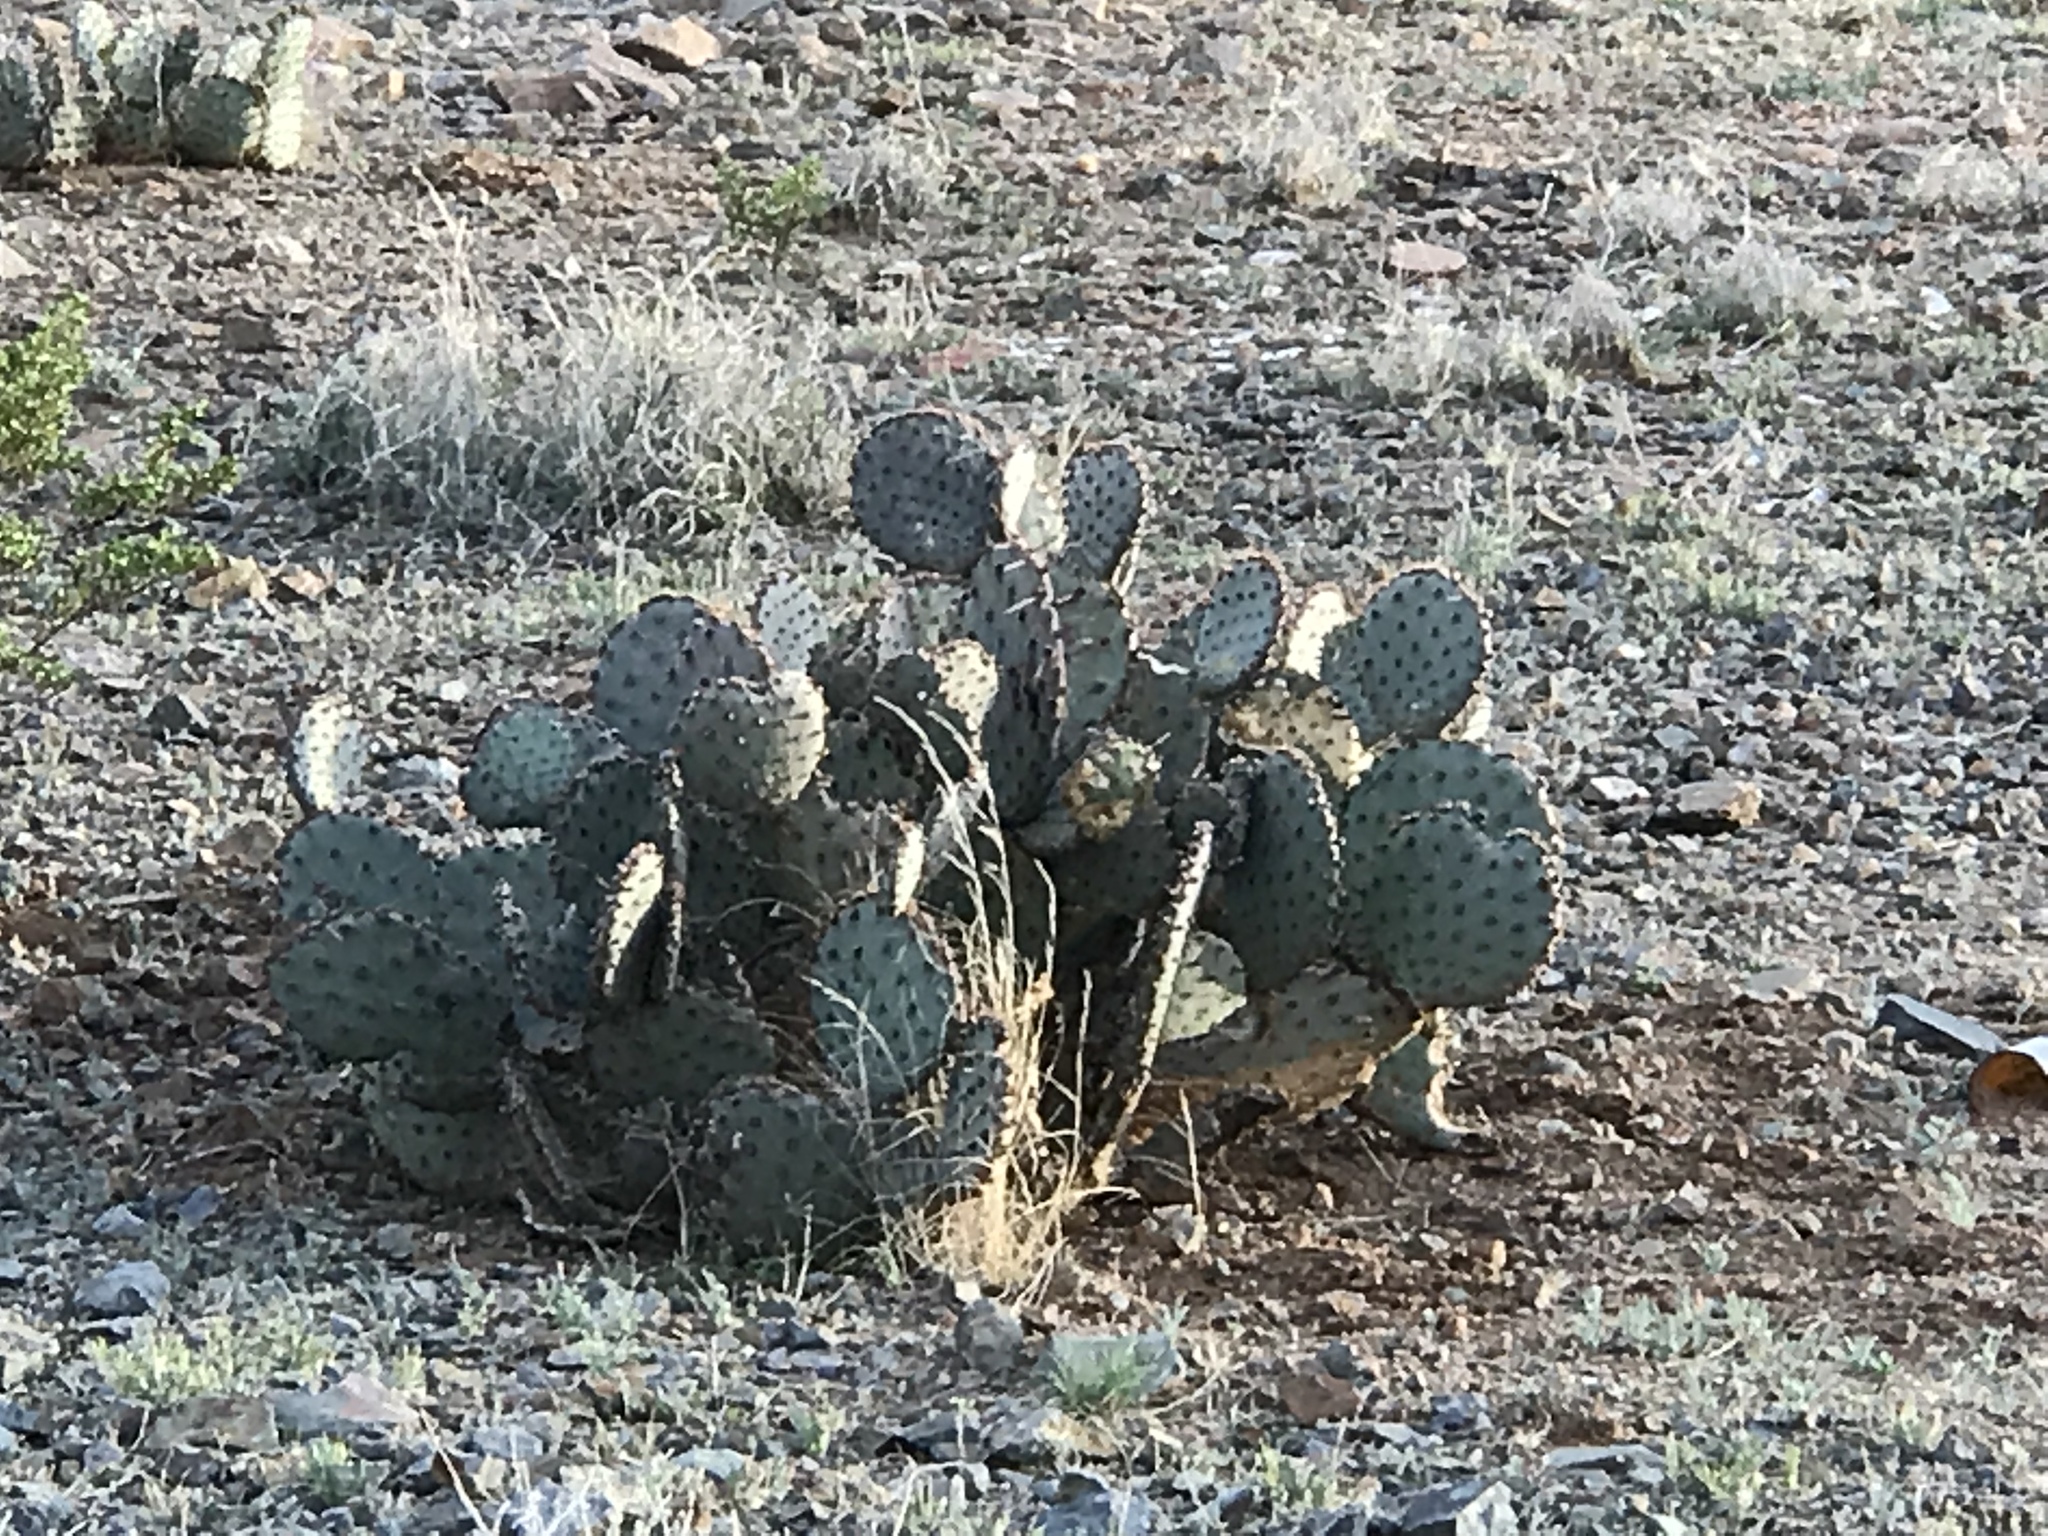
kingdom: Plantae
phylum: Tracheophyta
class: Magnoliopsida
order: Caryophyllales
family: Cactaceae
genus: Opuntia
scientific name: Opuntia macrocentra
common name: Purple prickly-pear
